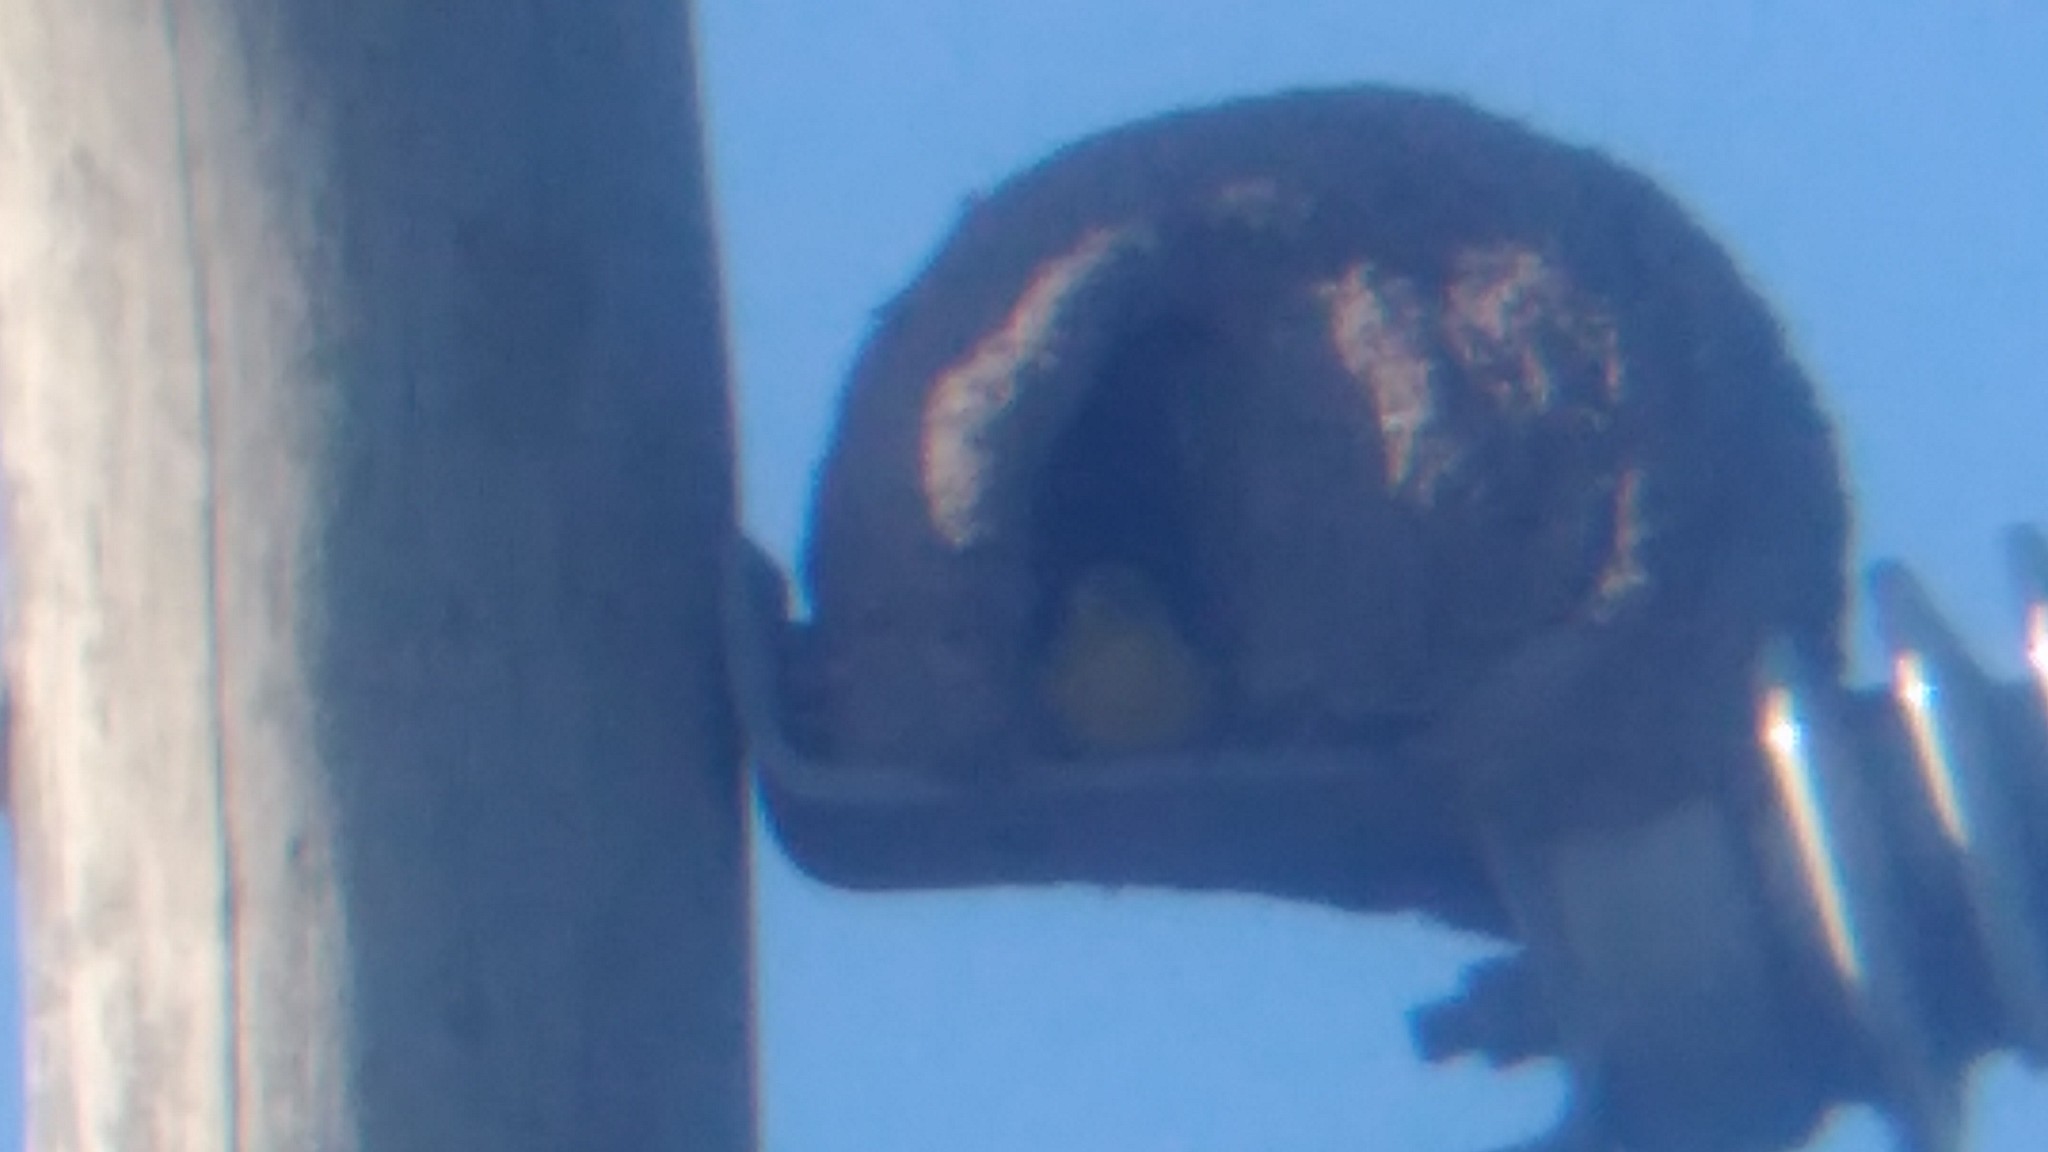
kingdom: Animalia
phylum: Chordata
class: Aves
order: Passeriformes
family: Thraupidae
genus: Sicalis
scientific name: Sicalis flaveola
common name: Saffron finch
